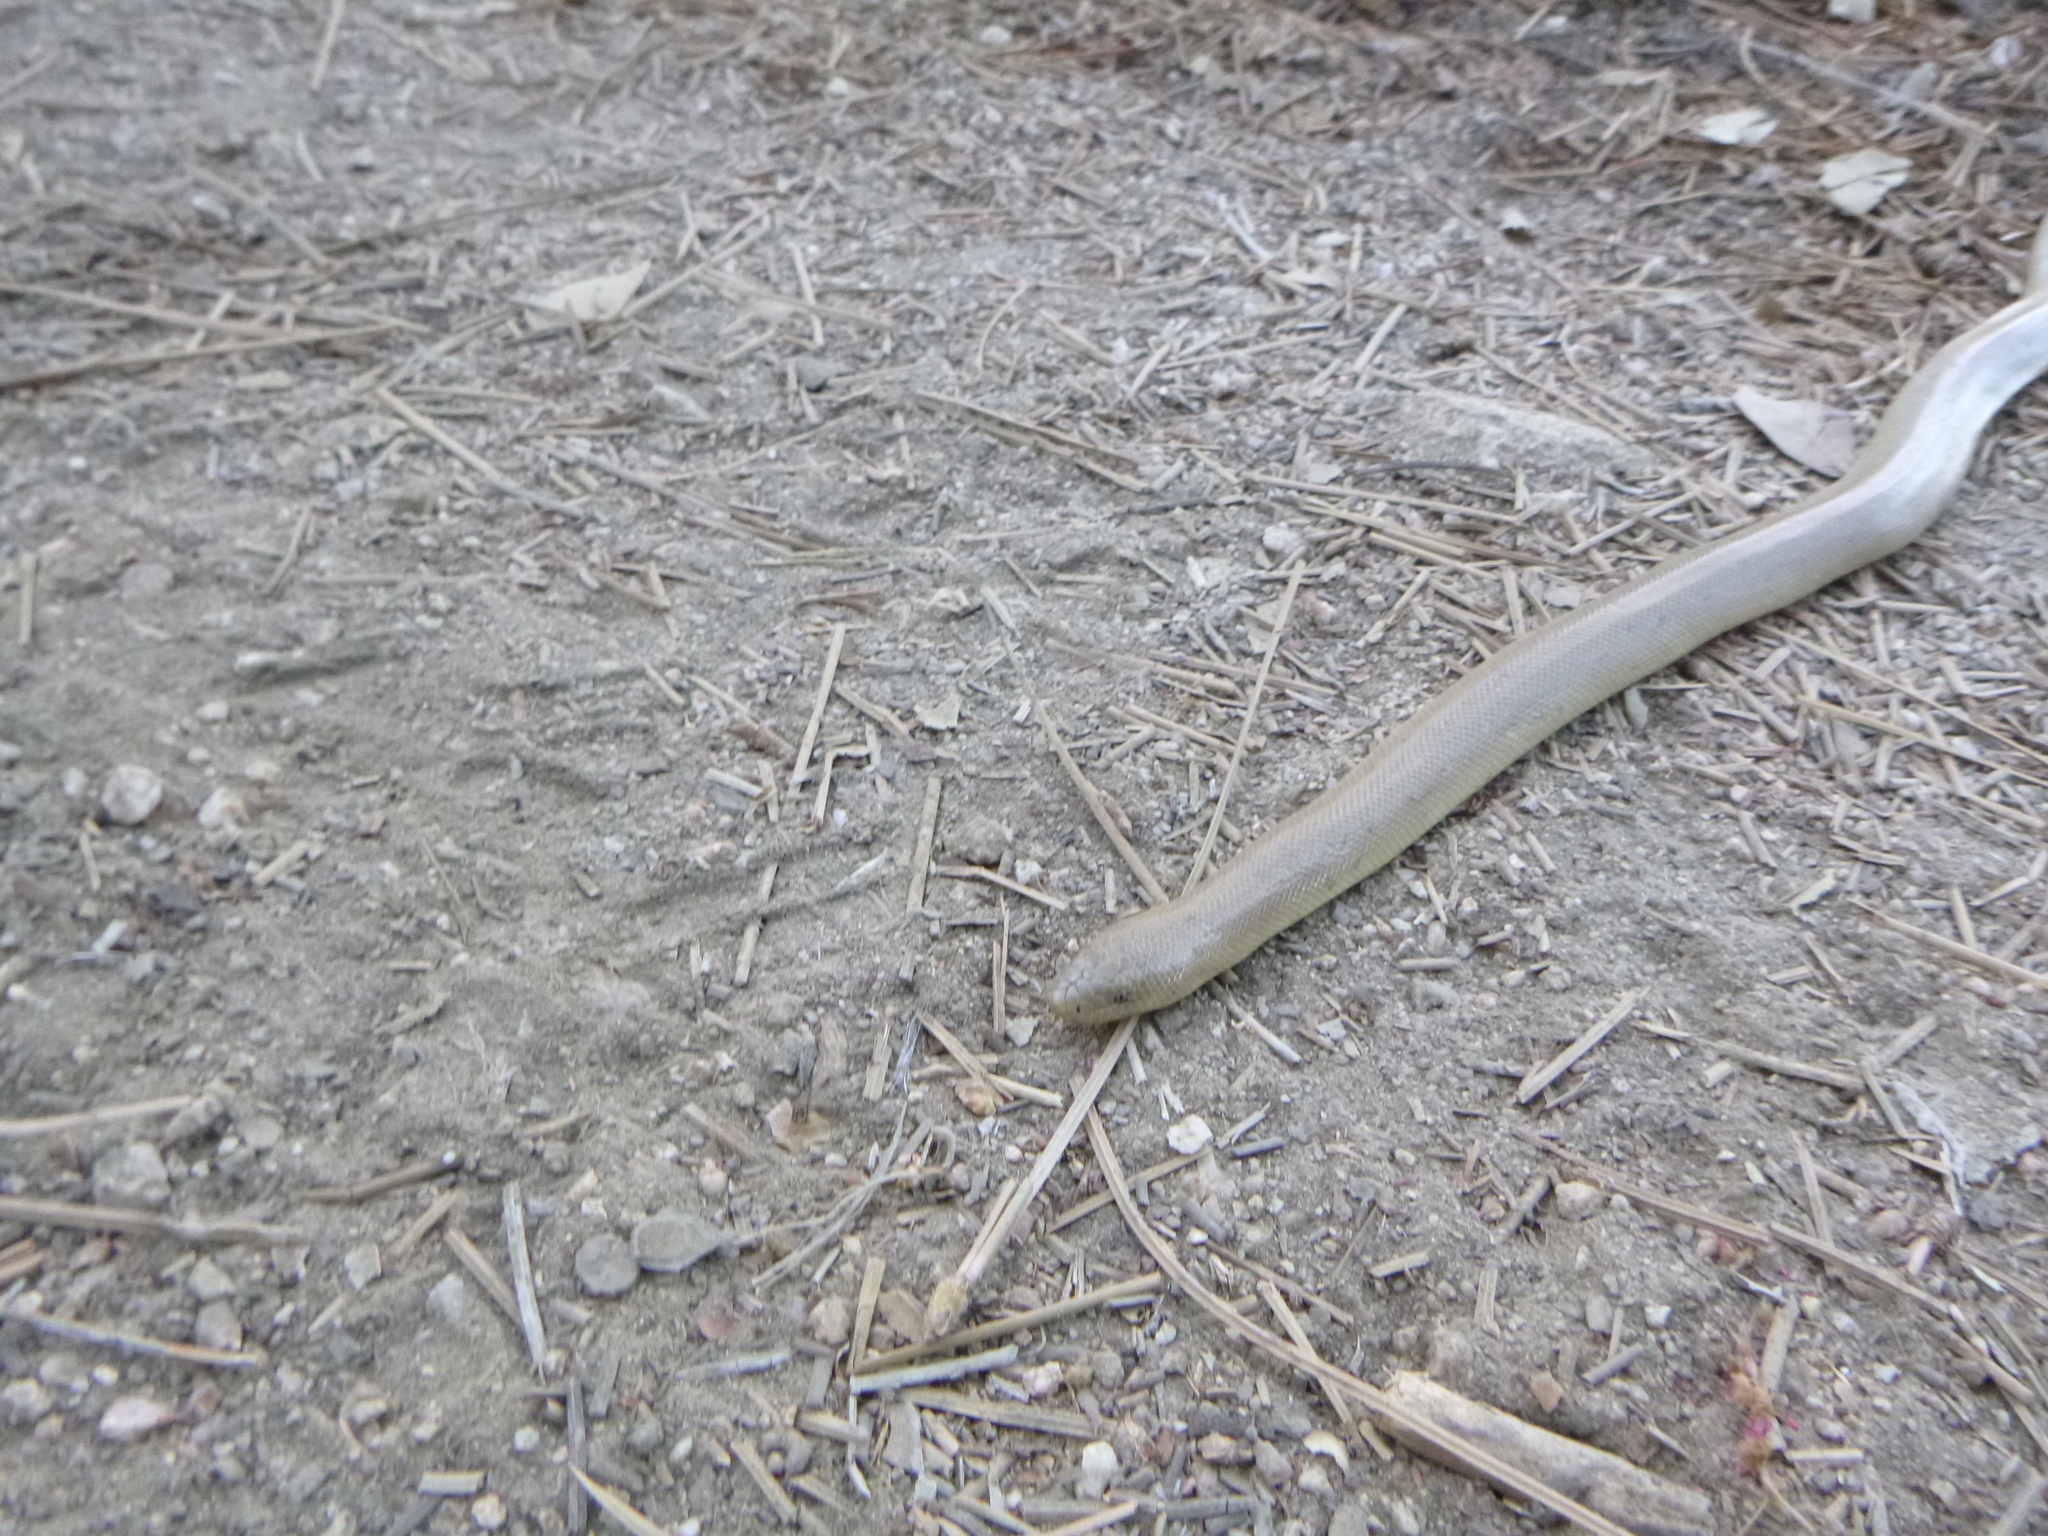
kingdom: Animalia
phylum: Chordata
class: Squamata
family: Boidae
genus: Charina
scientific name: Charina bottae
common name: Northern rubber boa
